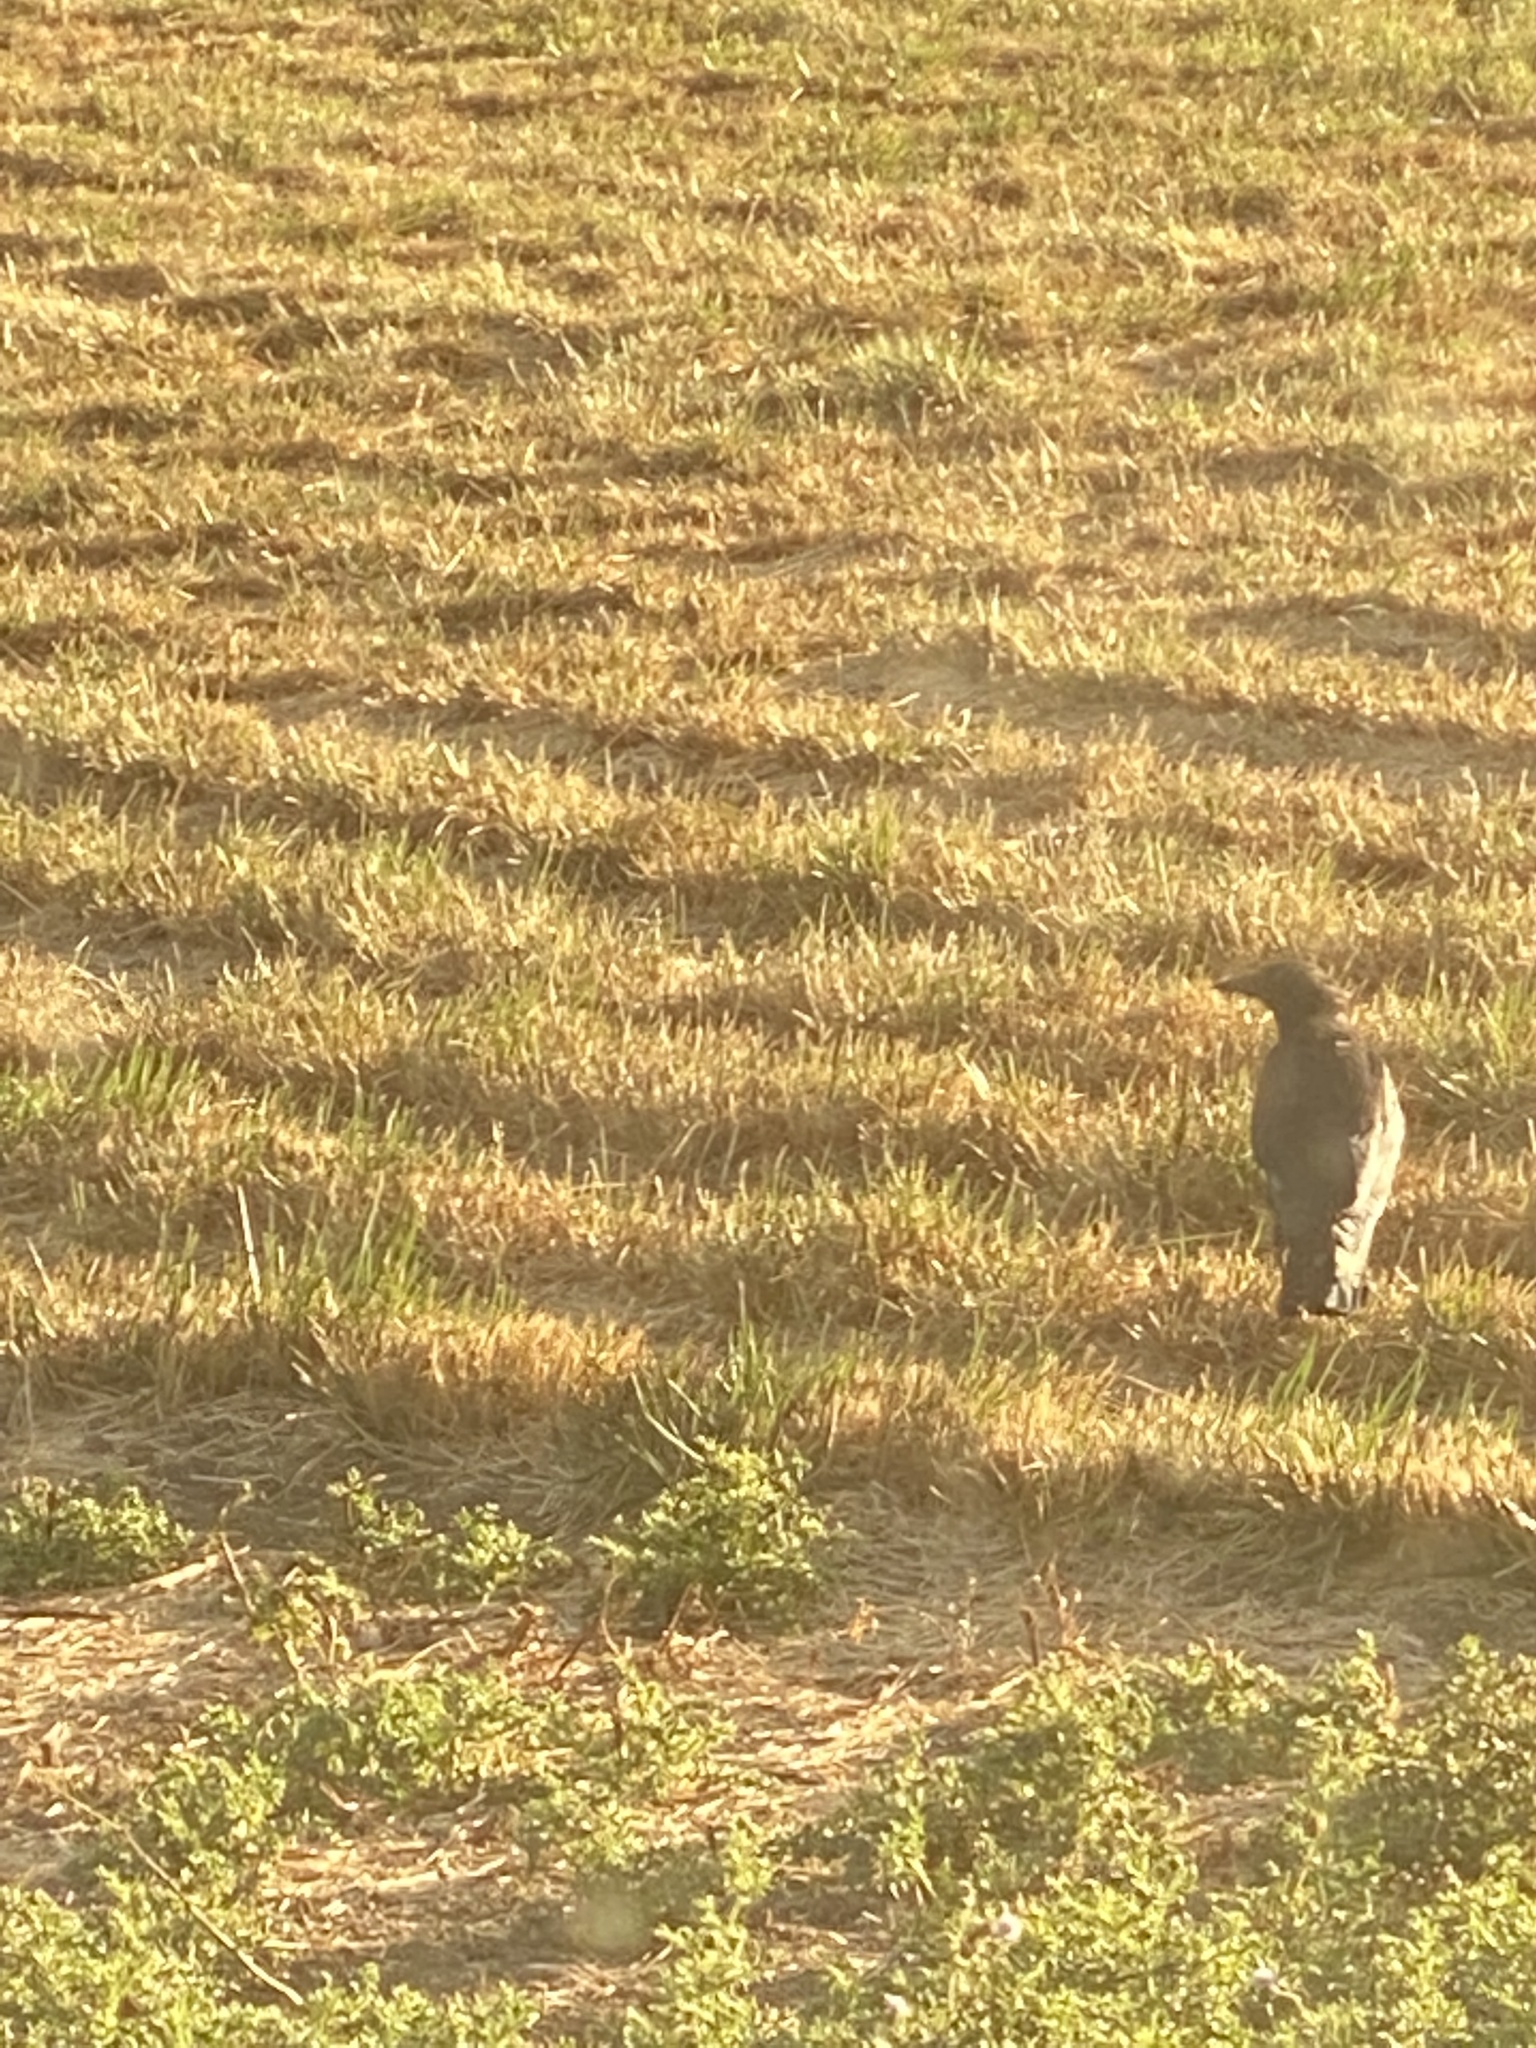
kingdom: Animalia
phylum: Chordata
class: Aves
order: Passeriformes
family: Corvidae
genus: Corvus
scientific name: Corvus brachyrhynchos
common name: American crow
